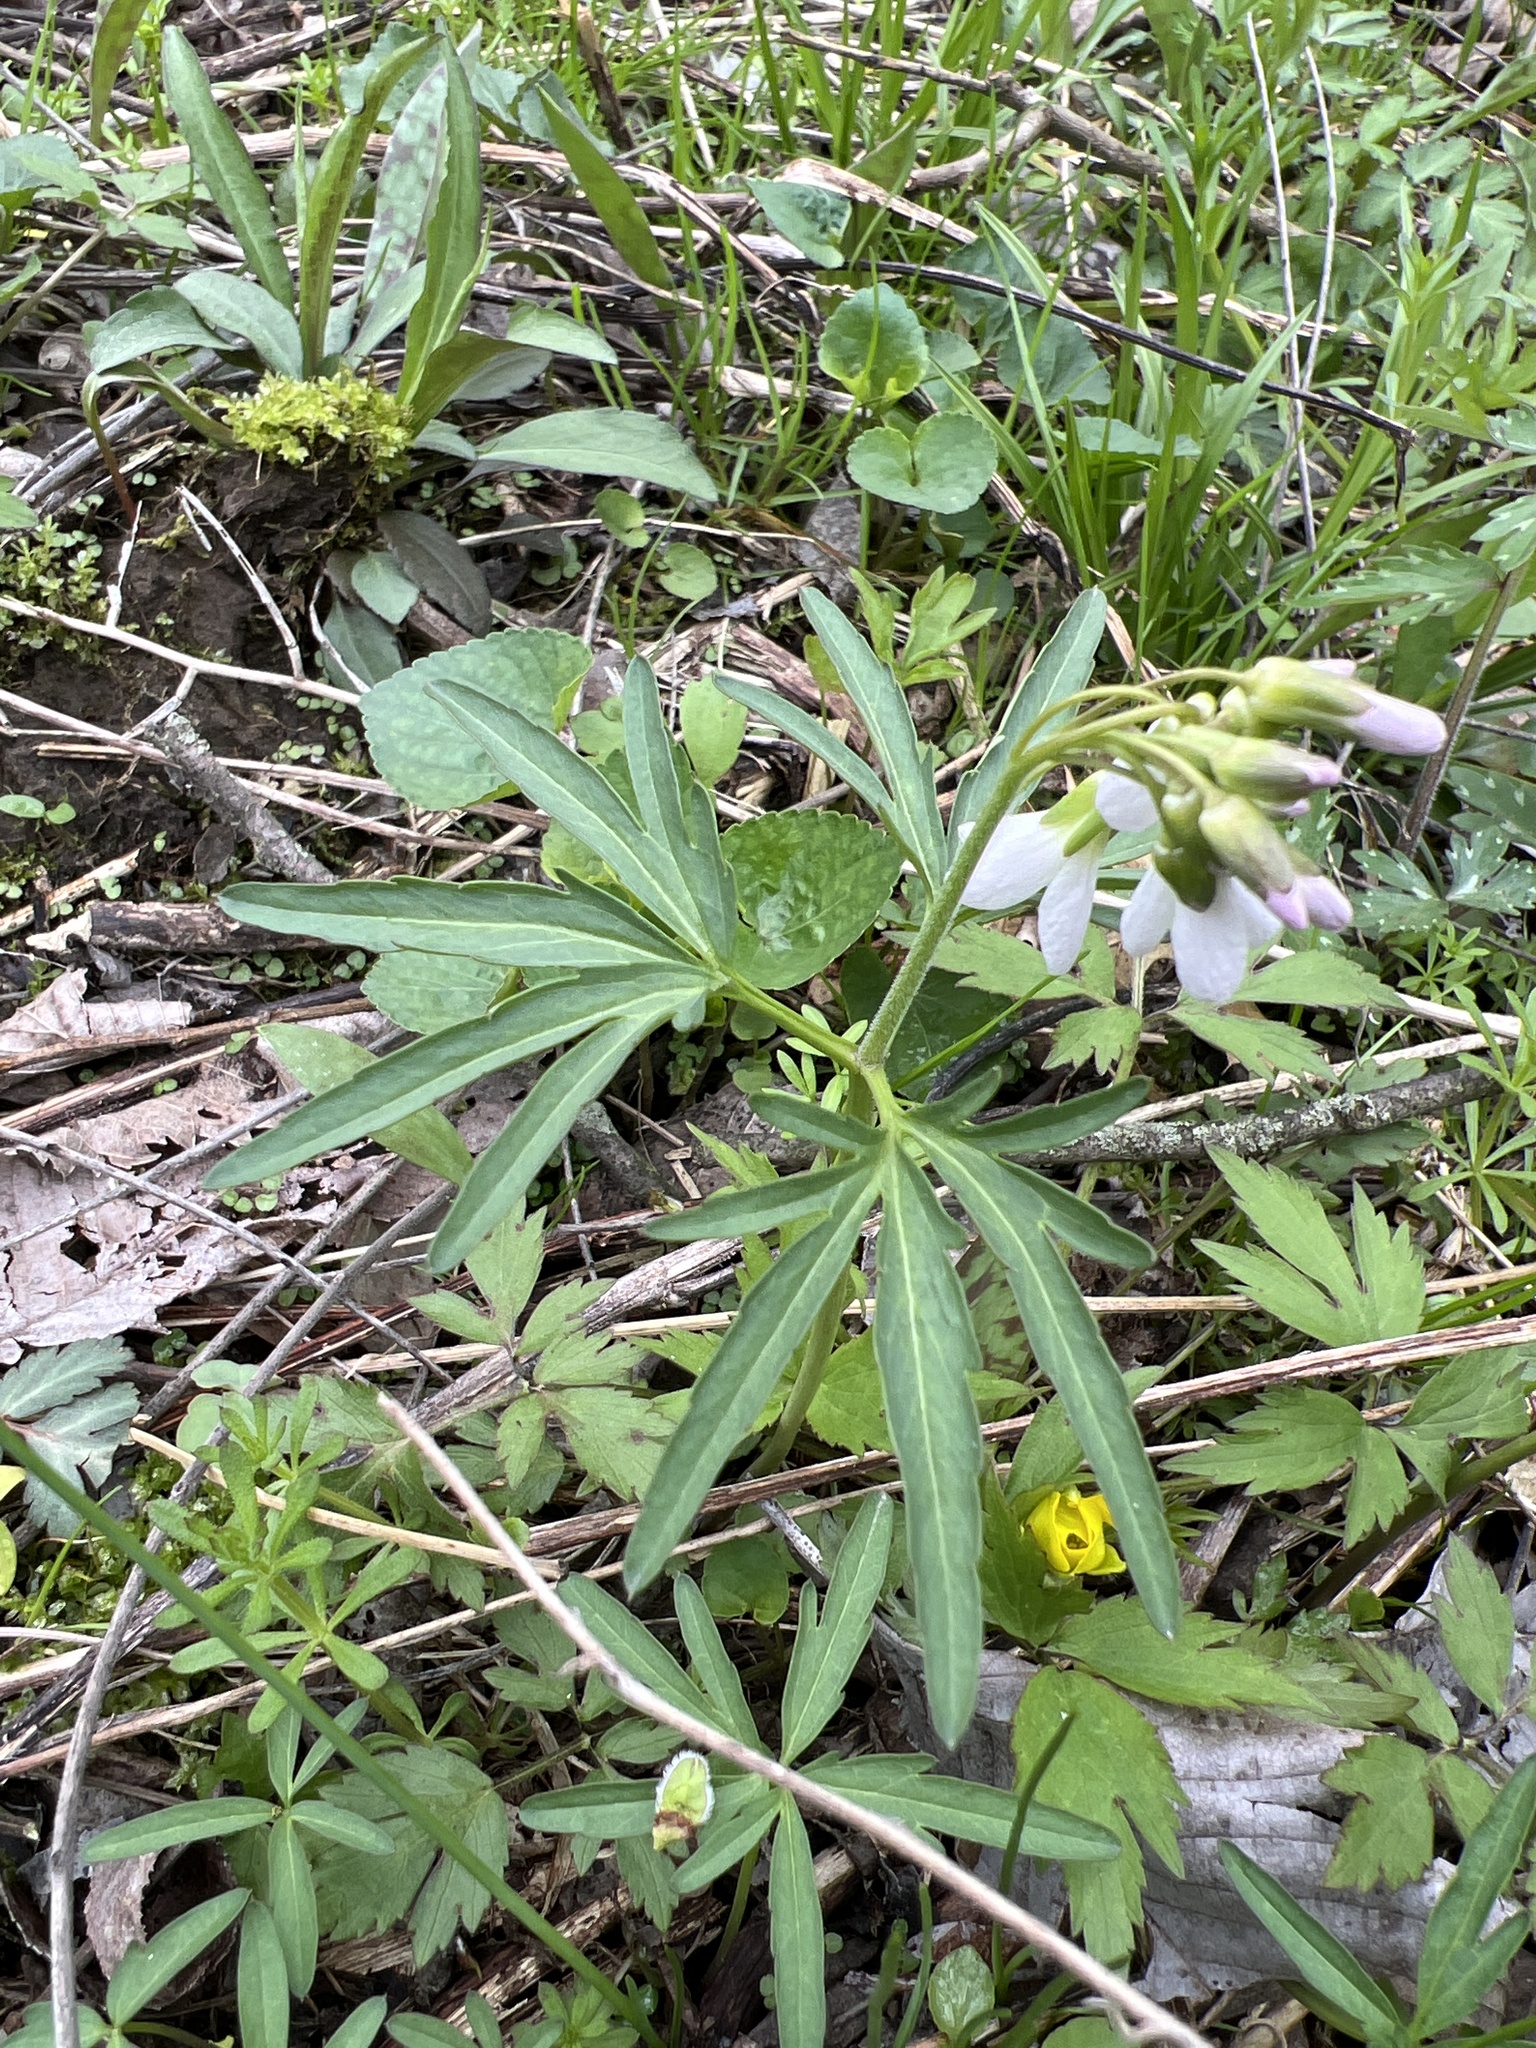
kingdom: Plantae
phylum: Tracheophyta
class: Magnoliopsida
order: Brassicales
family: Brassicaceae
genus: Cardamine
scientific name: Cardamine concatenata
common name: Cut-leaf toothcup
